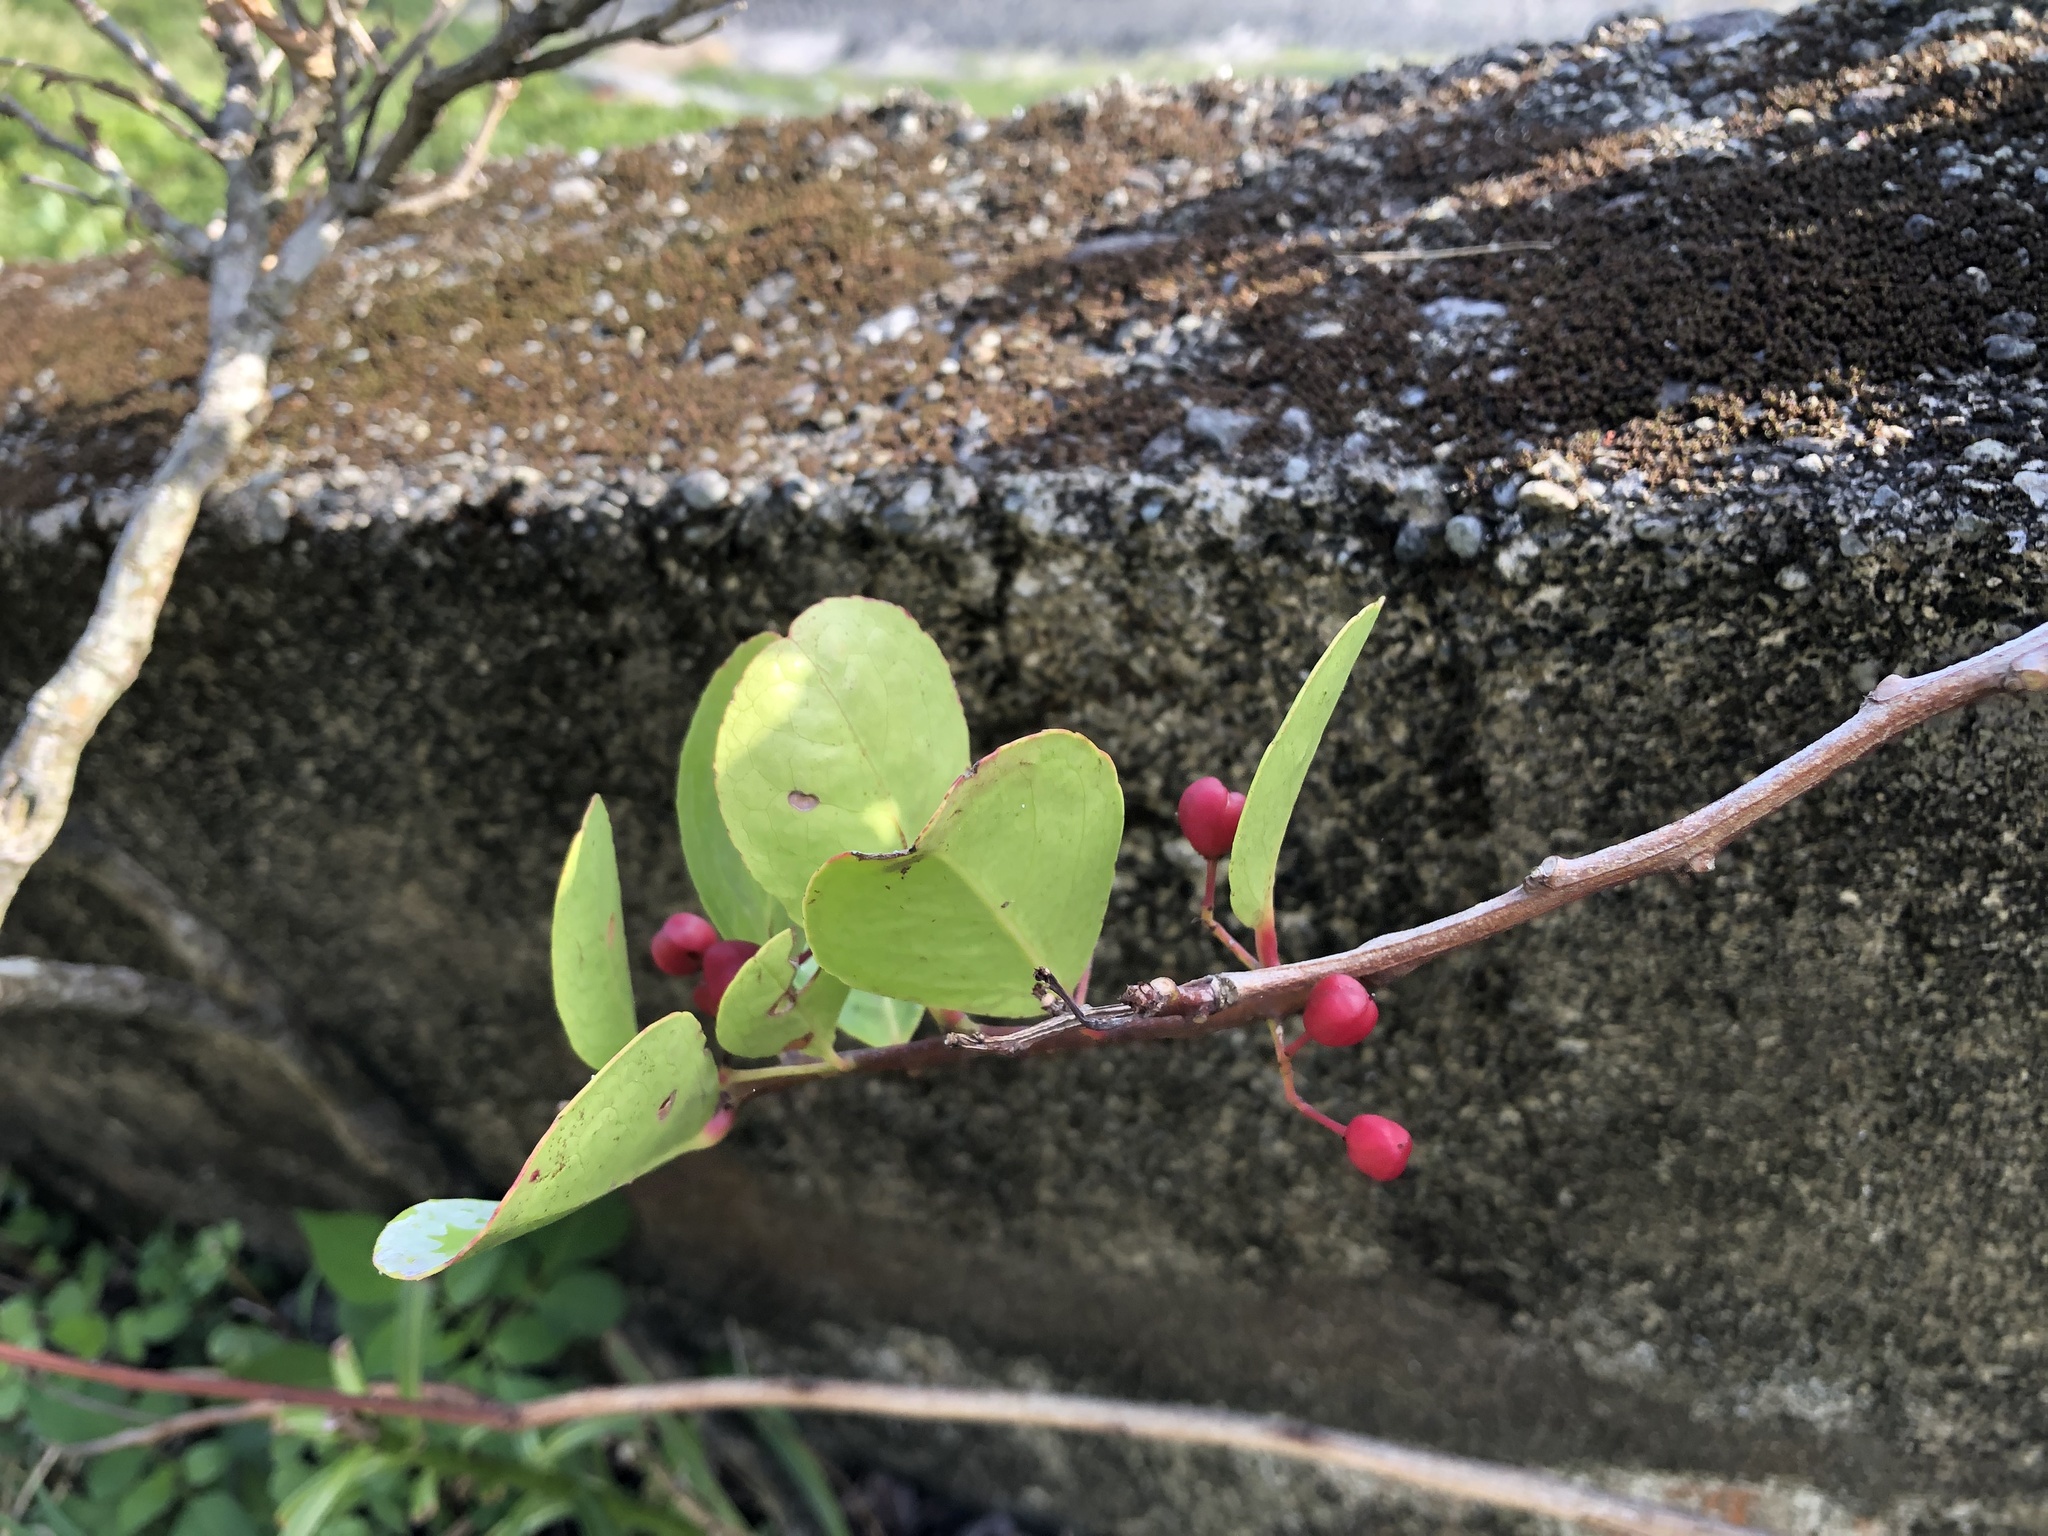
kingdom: Plantae
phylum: Tracheophyta
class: Magnoliopsida
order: Celastrales
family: Celastraceae
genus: Gymnosporia
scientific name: Gymnosporia emarginata
